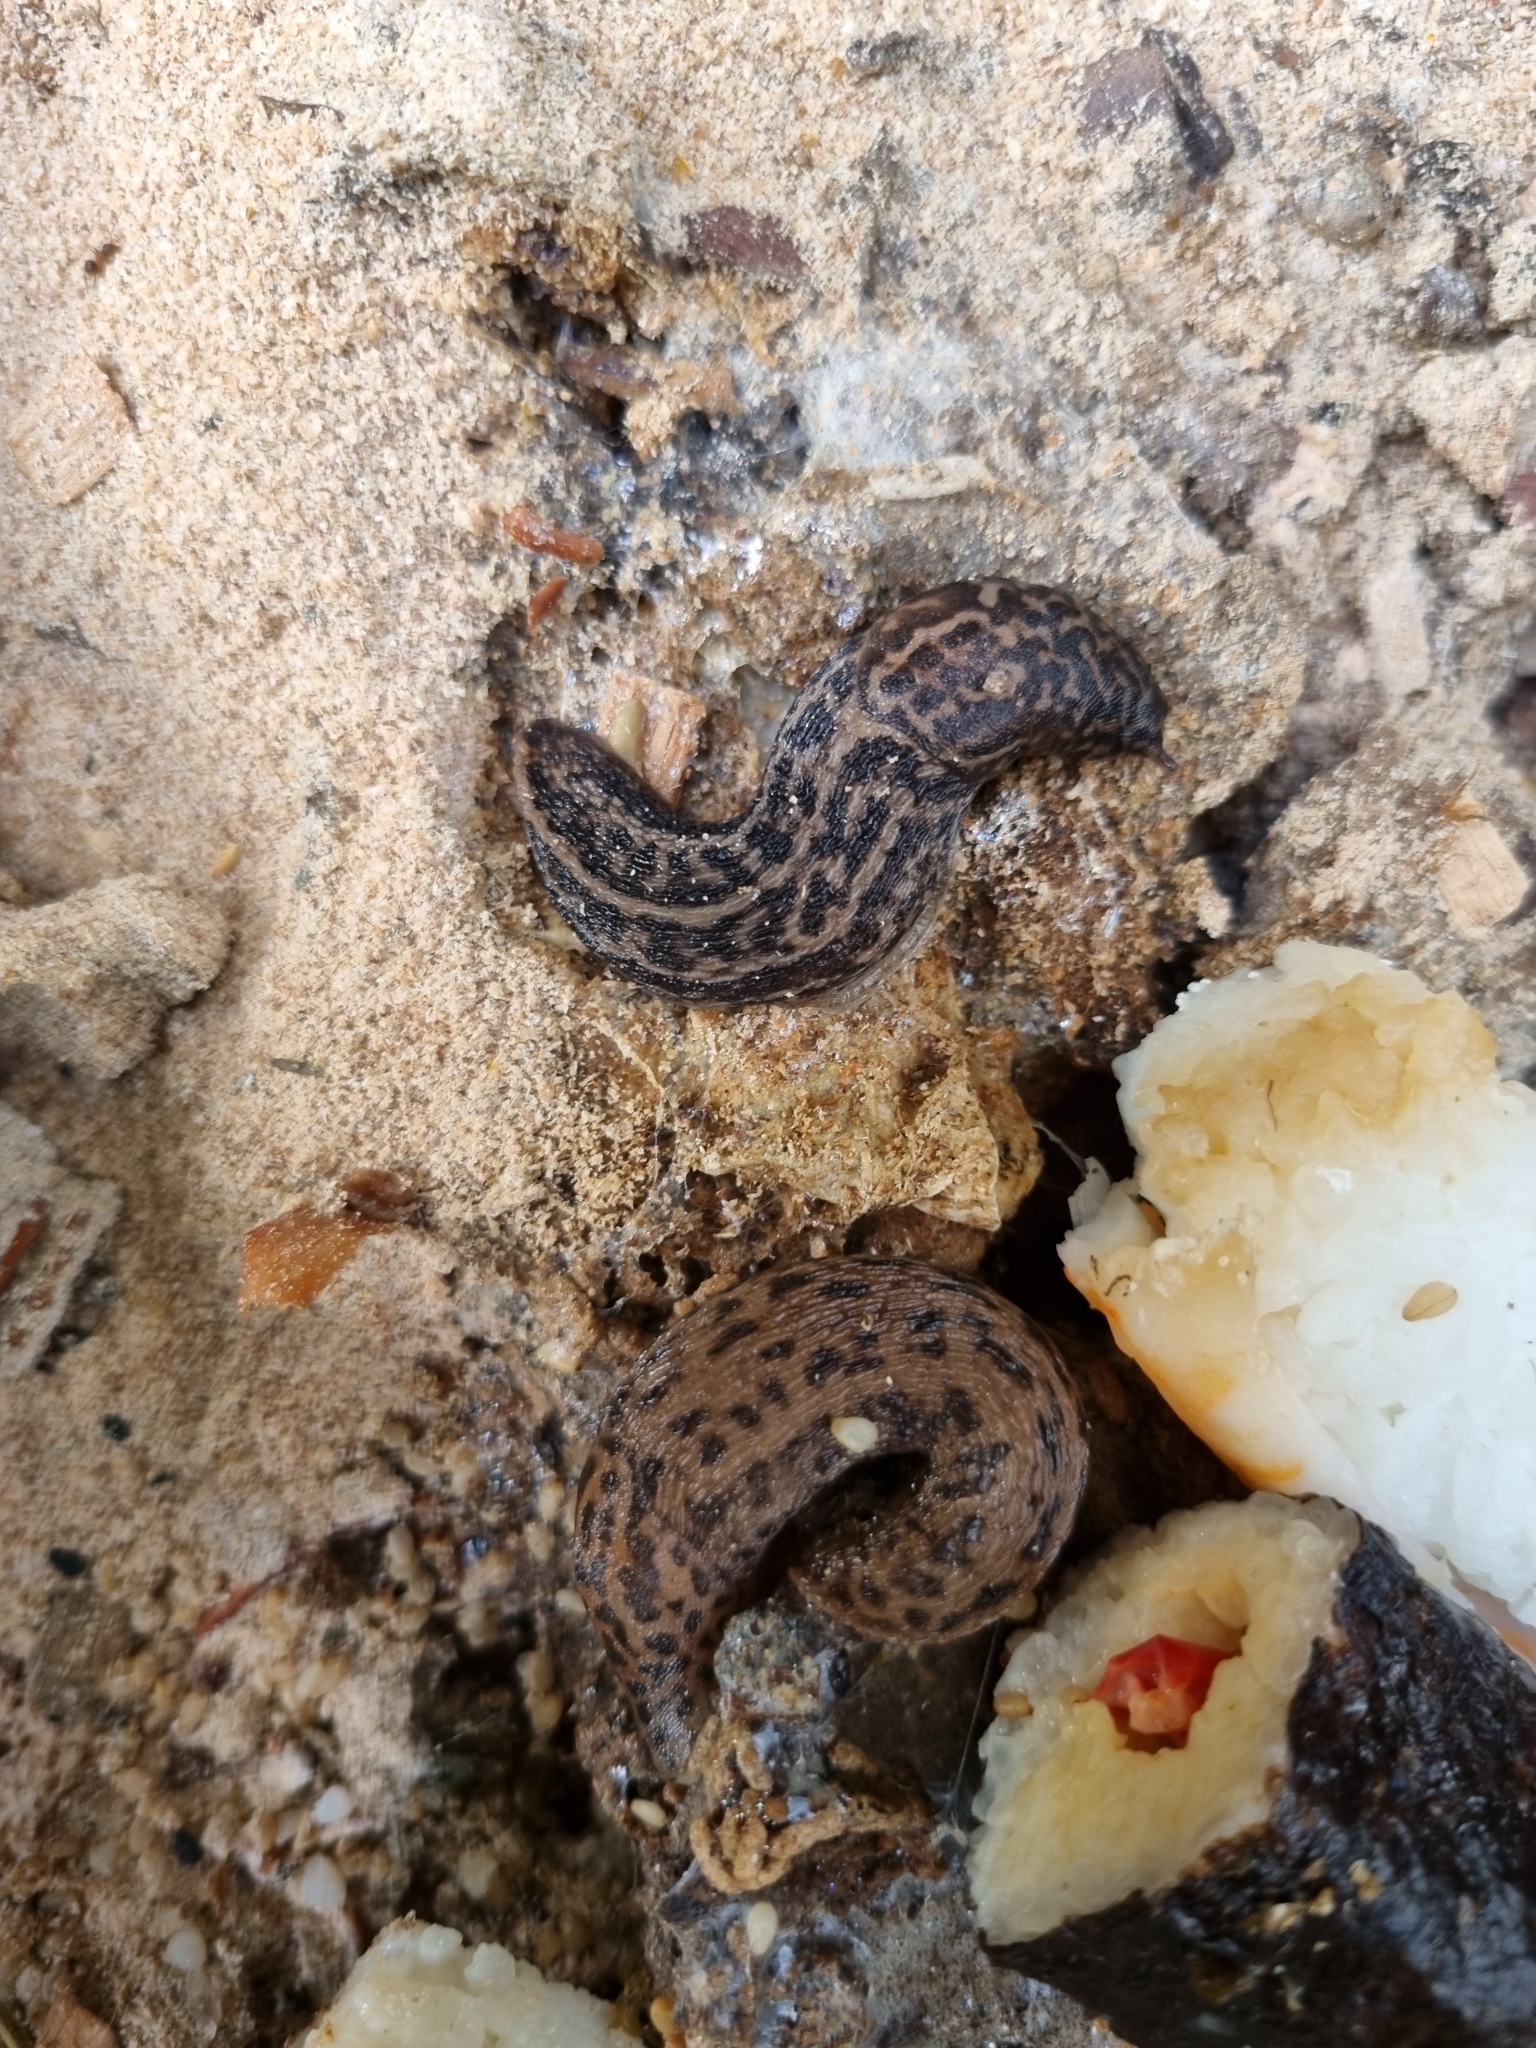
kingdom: Animalia
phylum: Mollusca
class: Gastropoda
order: Stylommatophora
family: Limacidae
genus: Limax
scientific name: Limax maximus
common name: Great grey slug
